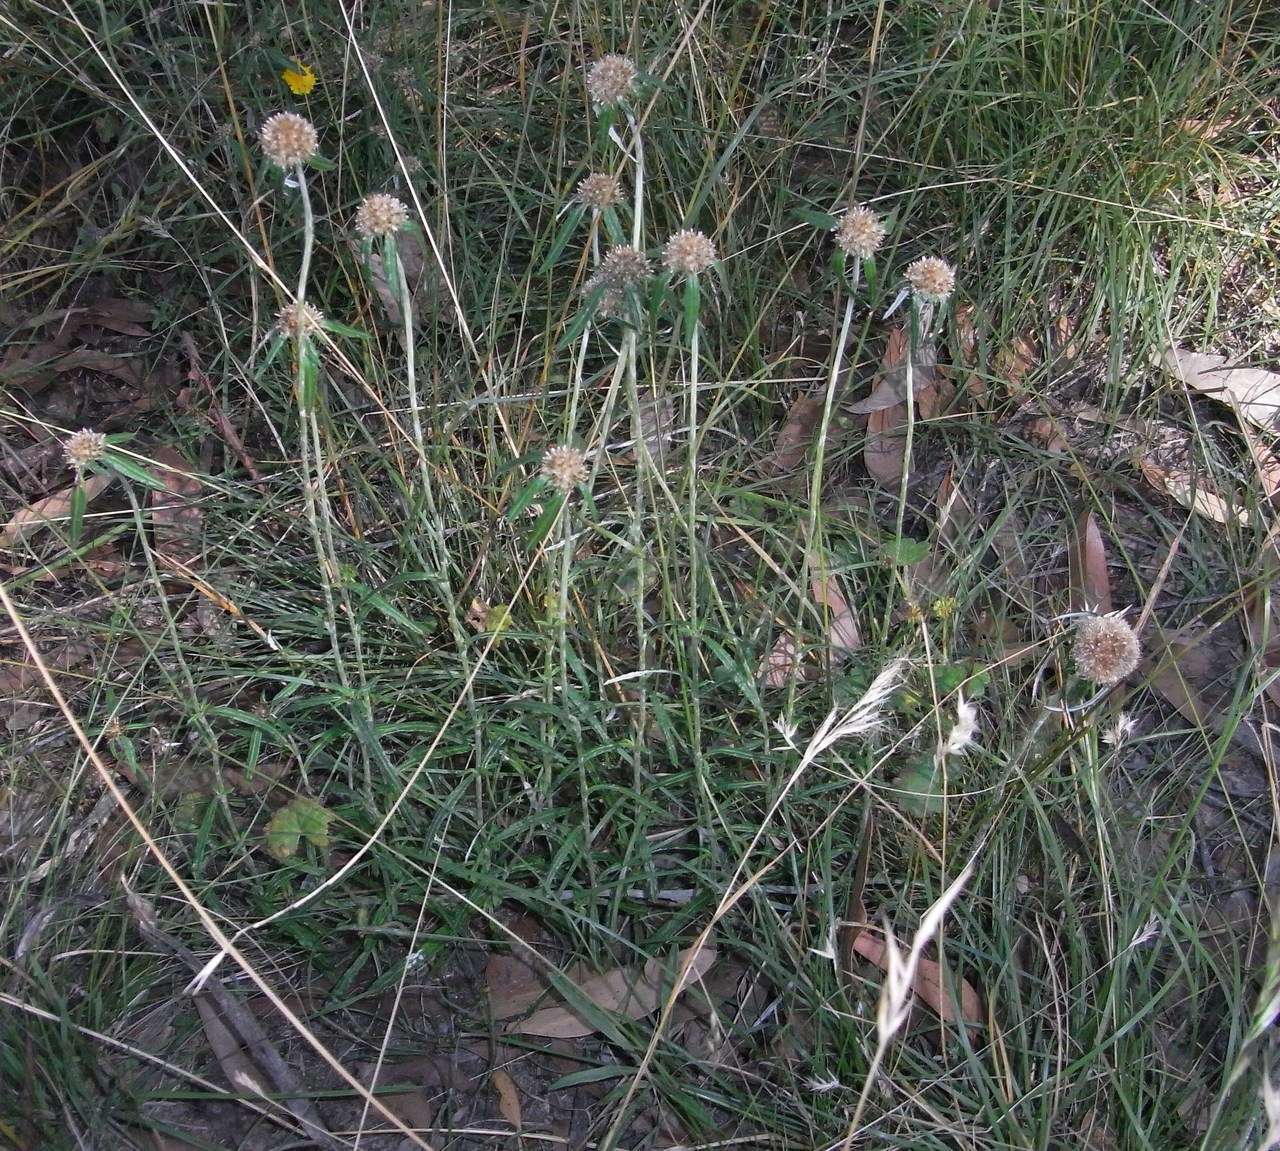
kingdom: Plantae
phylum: Tracheophyta
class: Magnoliopsida
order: Asterales
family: Asteraceae
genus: Euchiton
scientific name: Euchiton sphaericus
